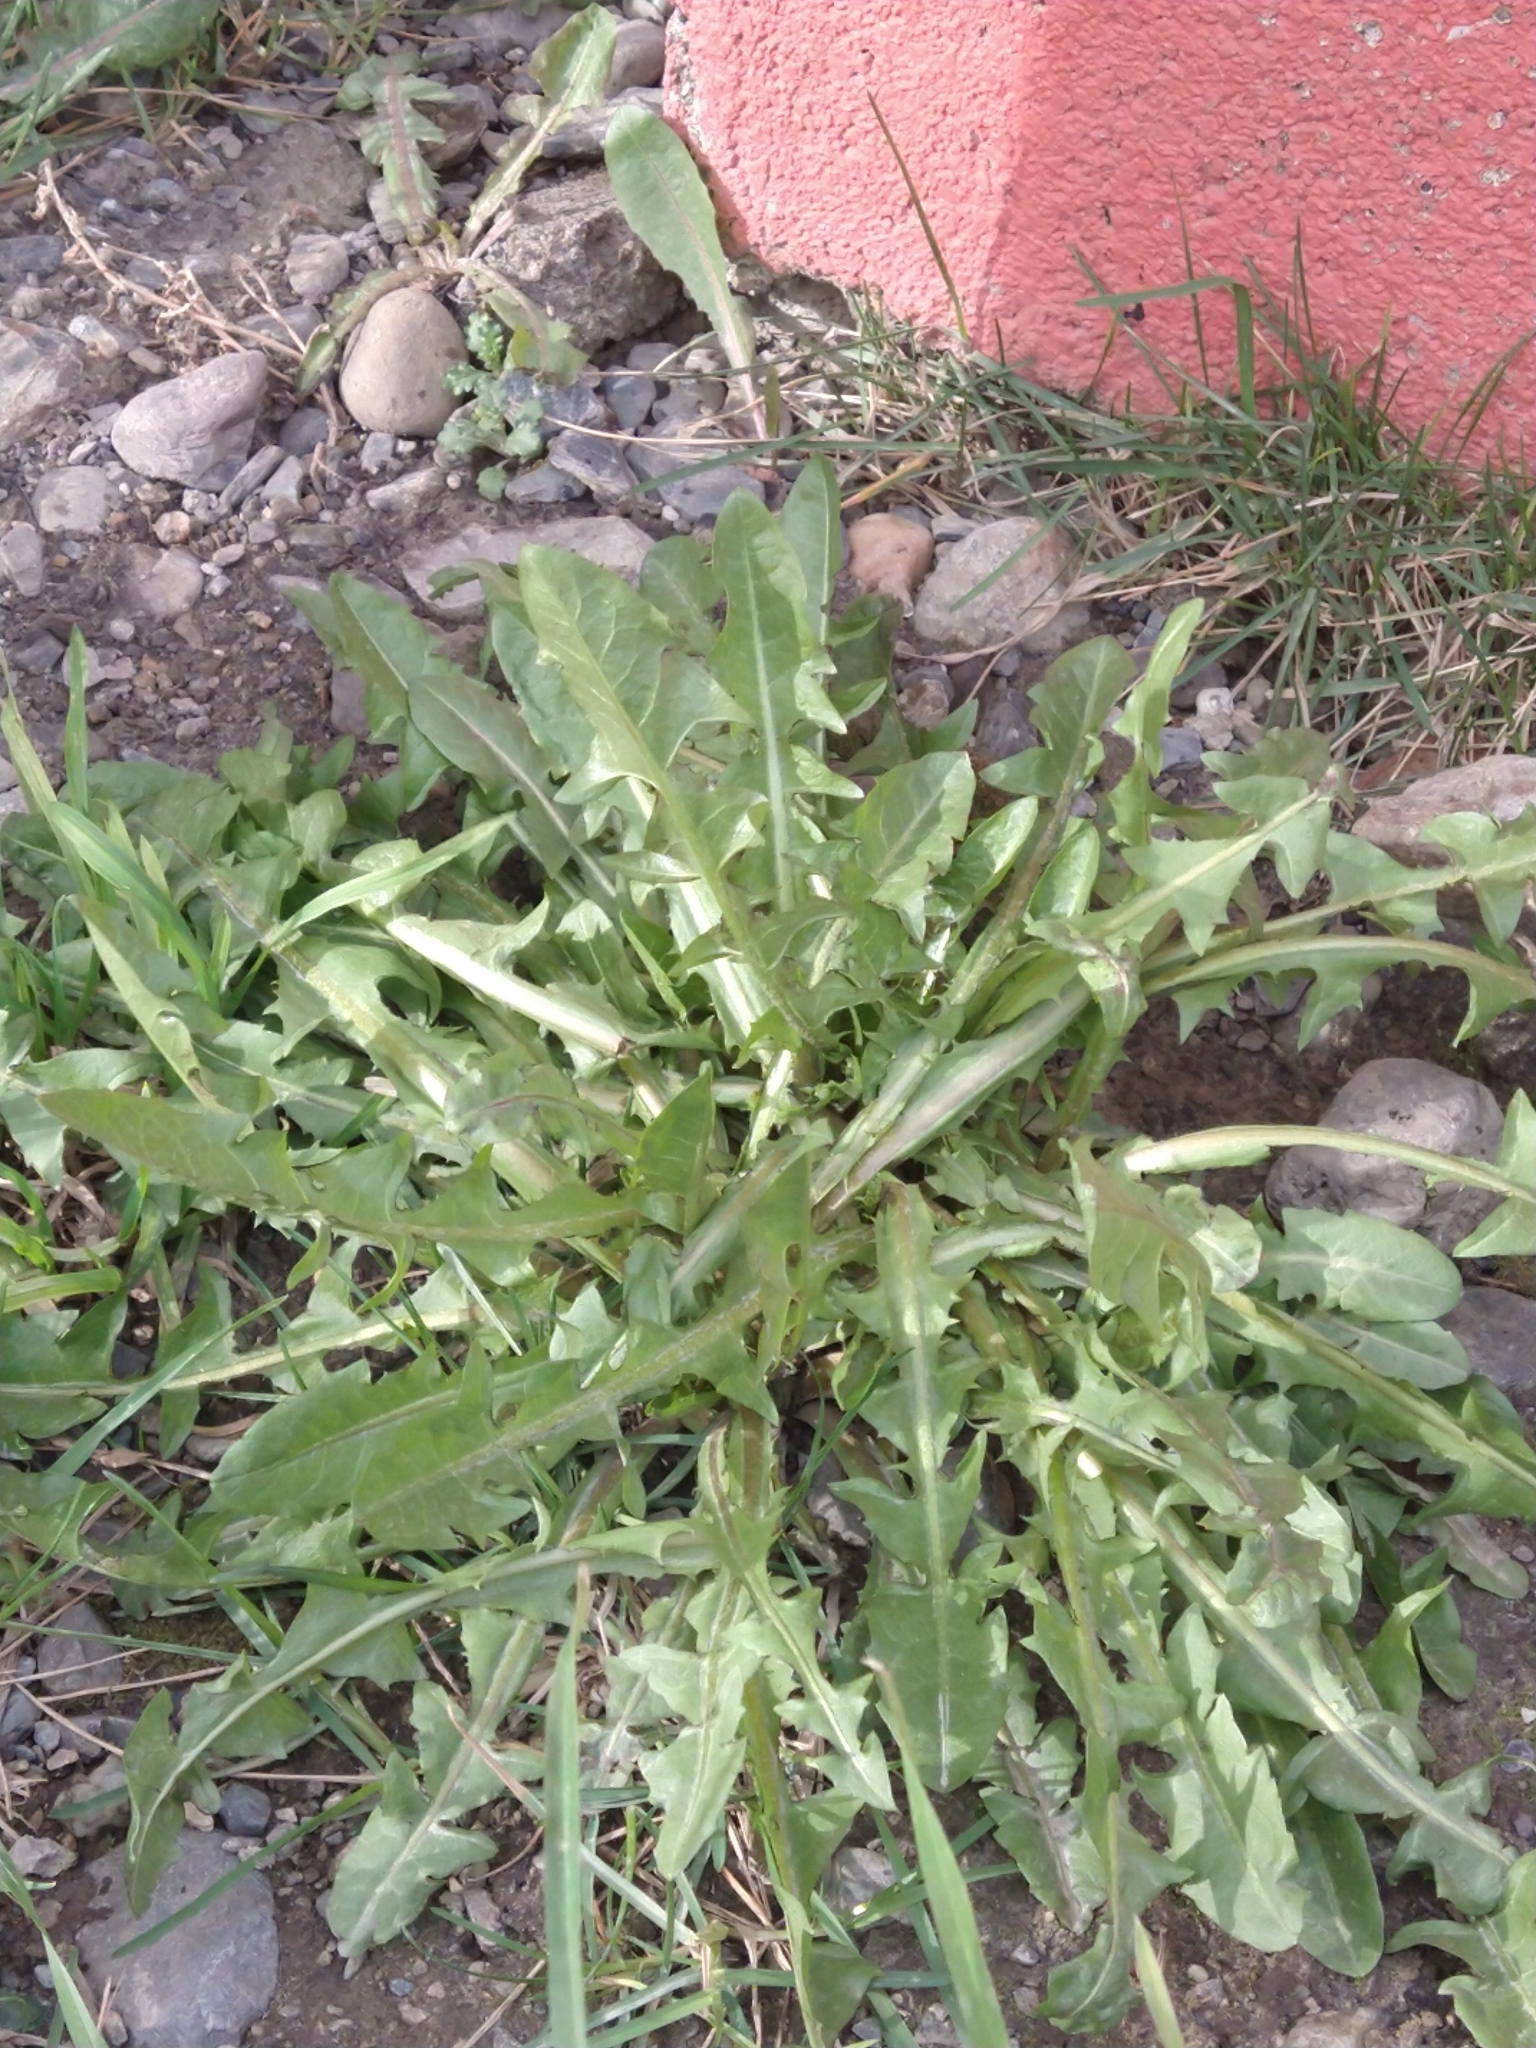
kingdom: Plantae
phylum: Tracheophyta
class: Magnoliopsida
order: Asterales
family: Asteraceae
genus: Taraxacum
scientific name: Taraxacum officinale
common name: Common dandelion
